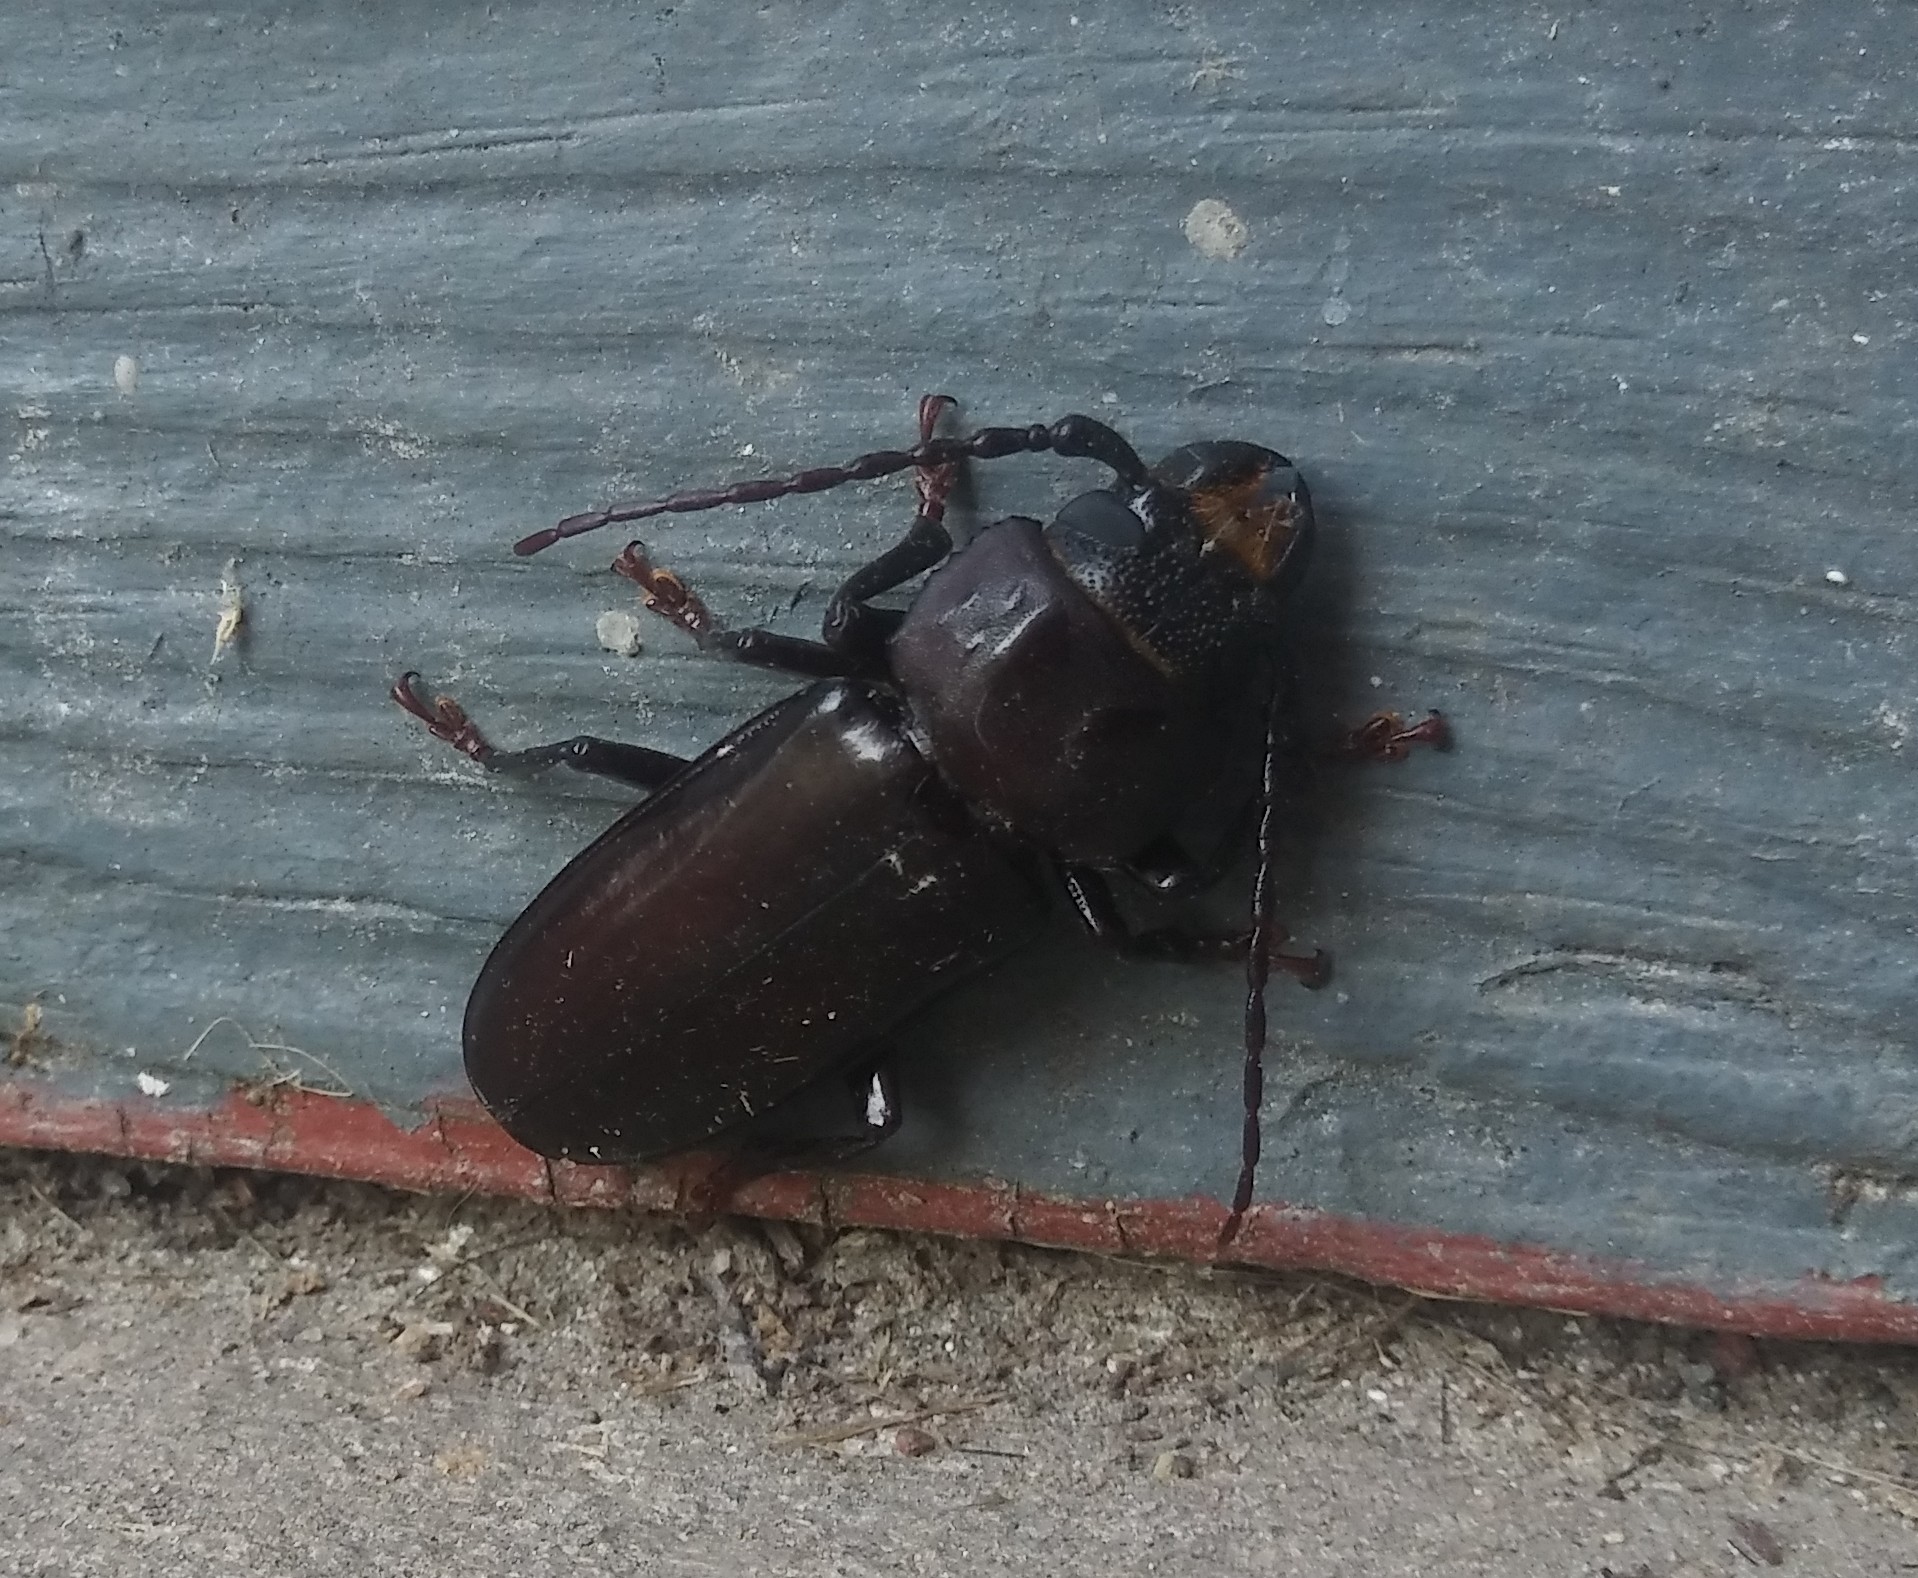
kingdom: Animalia
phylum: Arthropoda
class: Insecta
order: Coleoptera
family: Cerambycidae
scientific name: Cerambycidae
